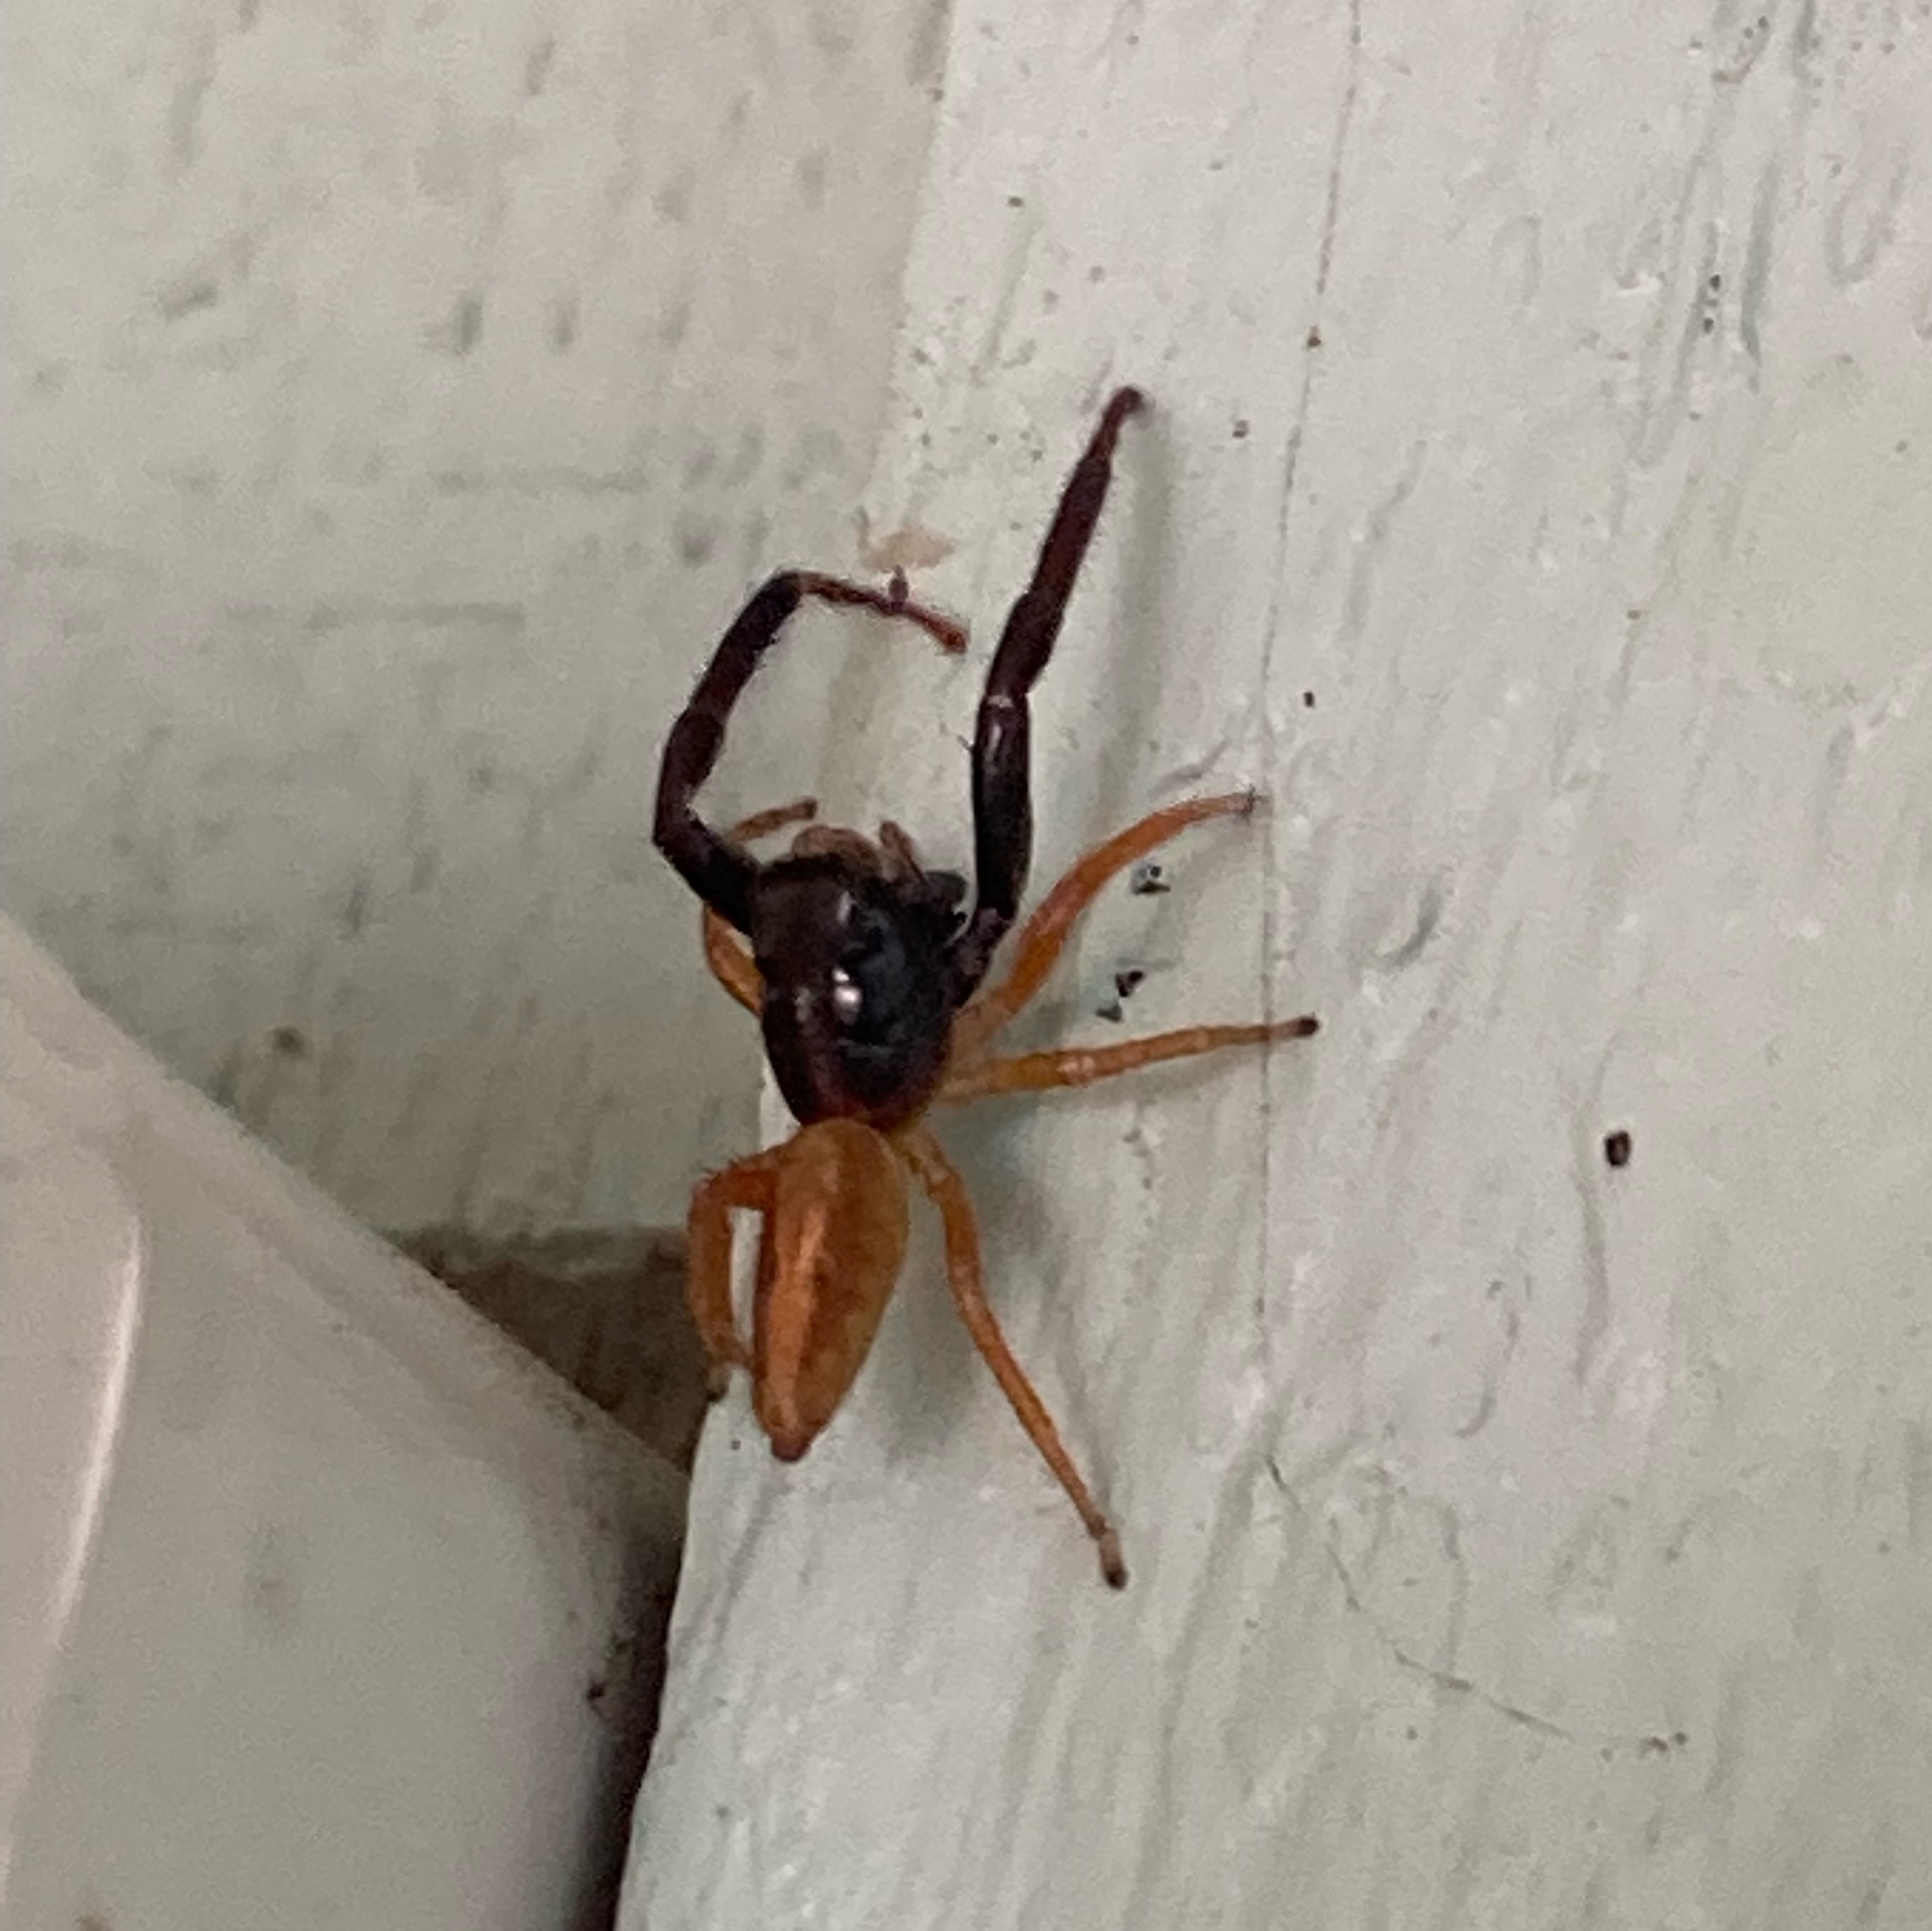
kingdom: Animalia
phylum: Arthropoda
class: Arachnida
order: Araneae
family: Salticidae
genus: Trite
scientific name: Trite planiceps
